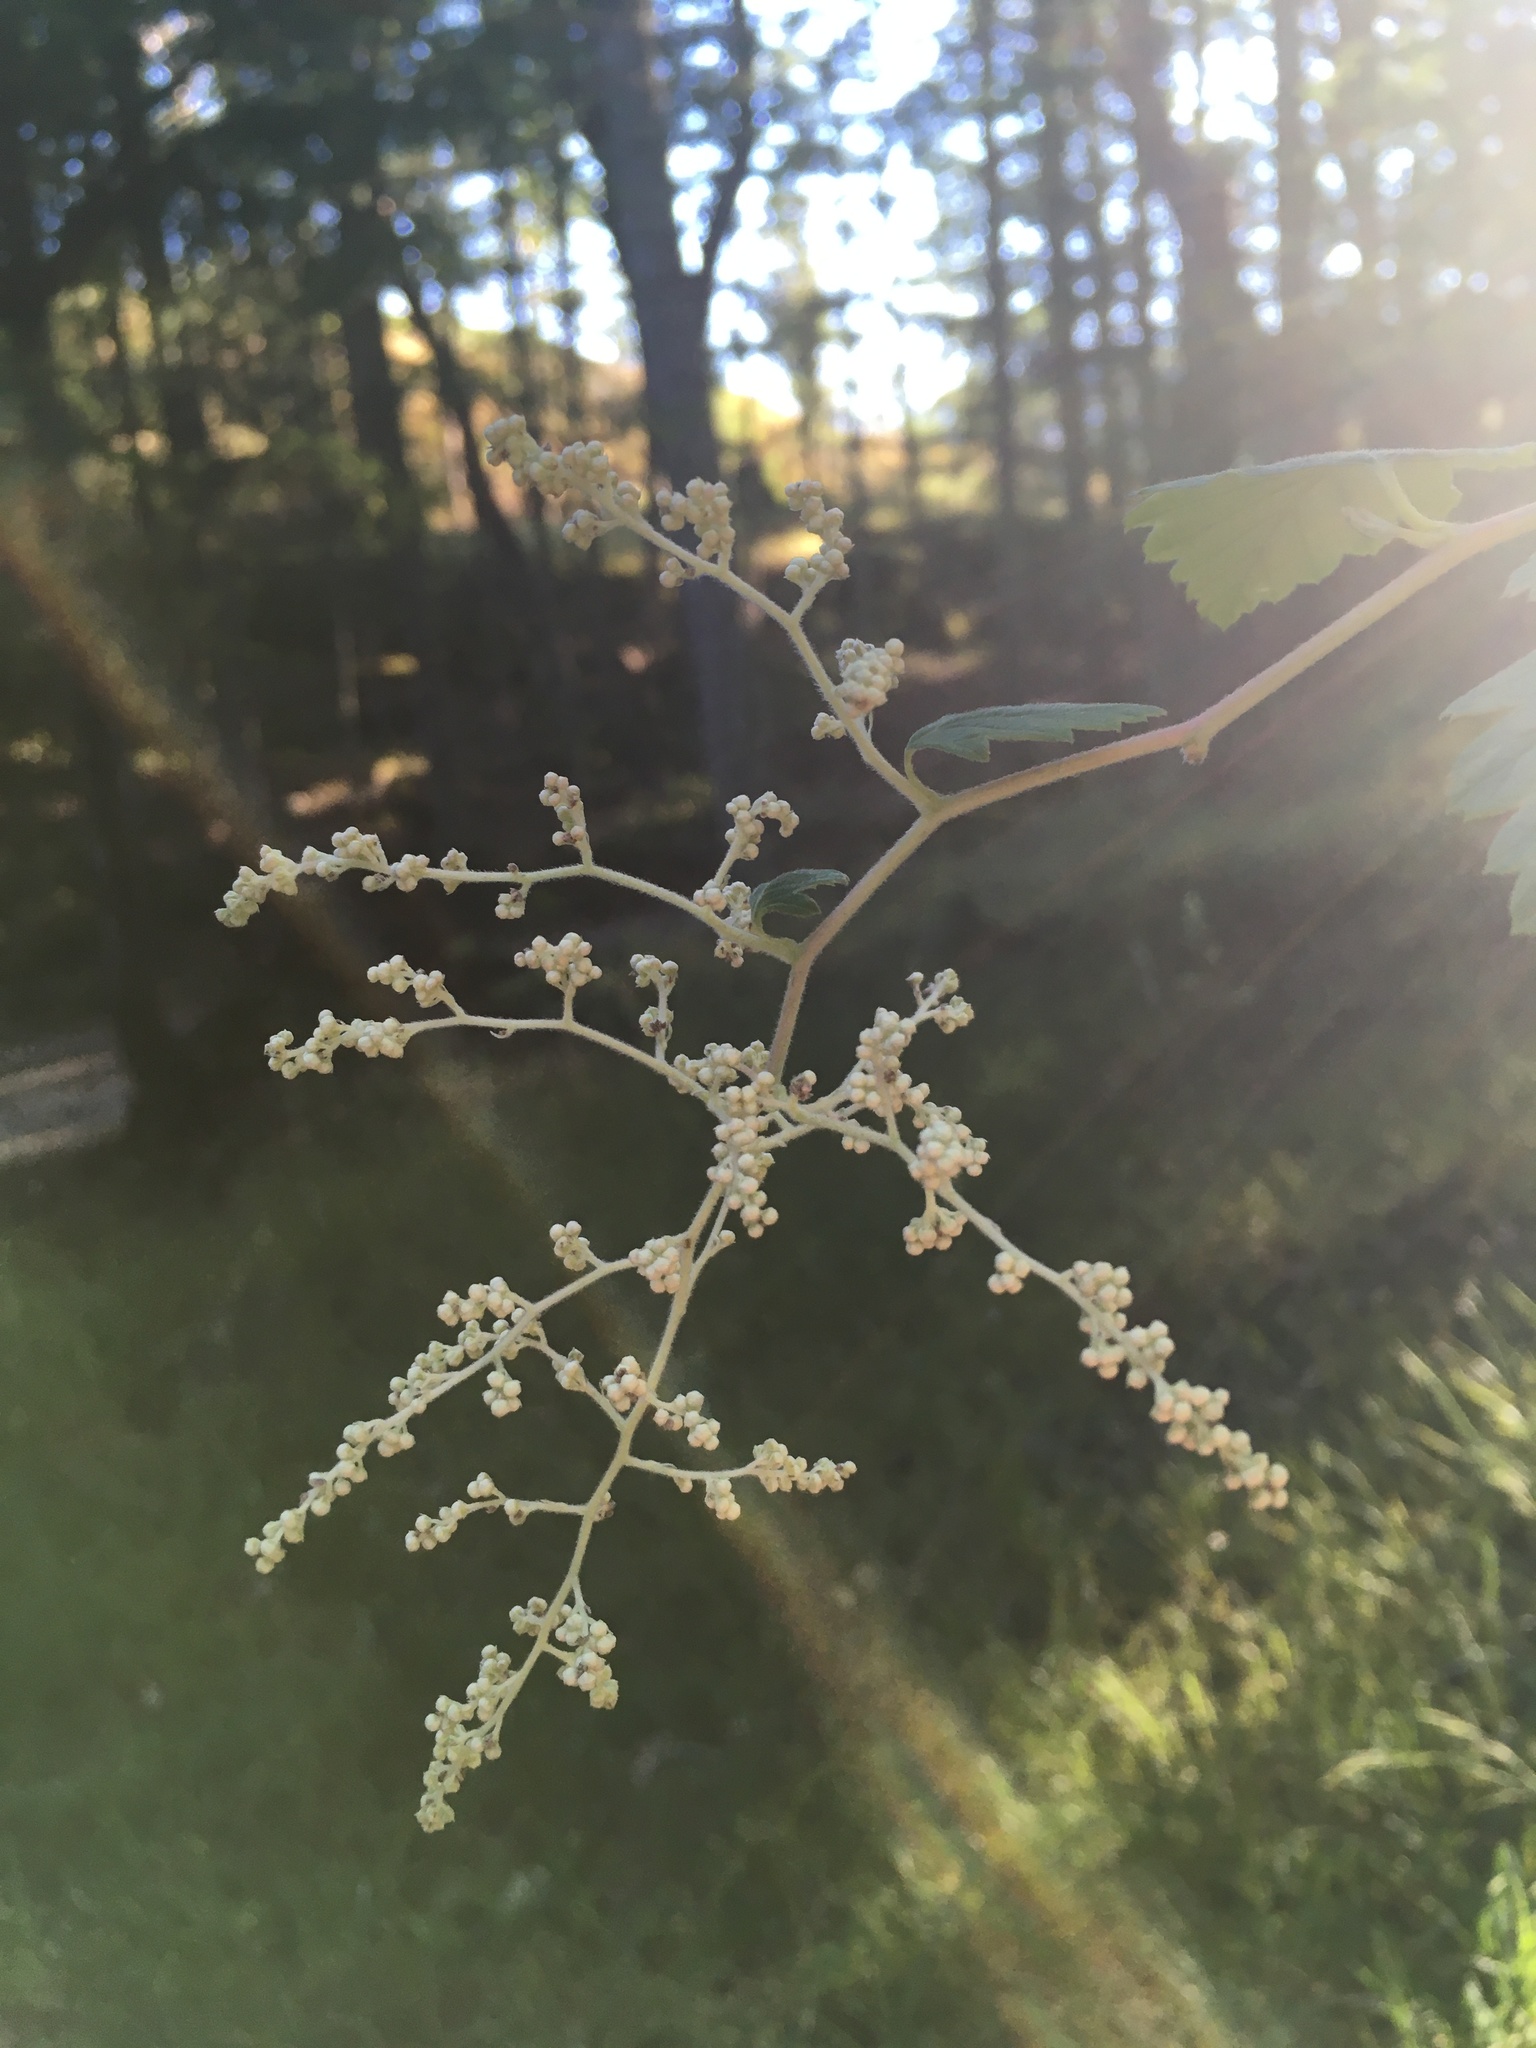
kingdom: Plantae
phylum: Tracheophyta
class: Magnoliopsida
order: Rosales
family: Rosaceae
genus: Holodiscus
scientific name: Holodiscus discolor
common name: Oceanspray
